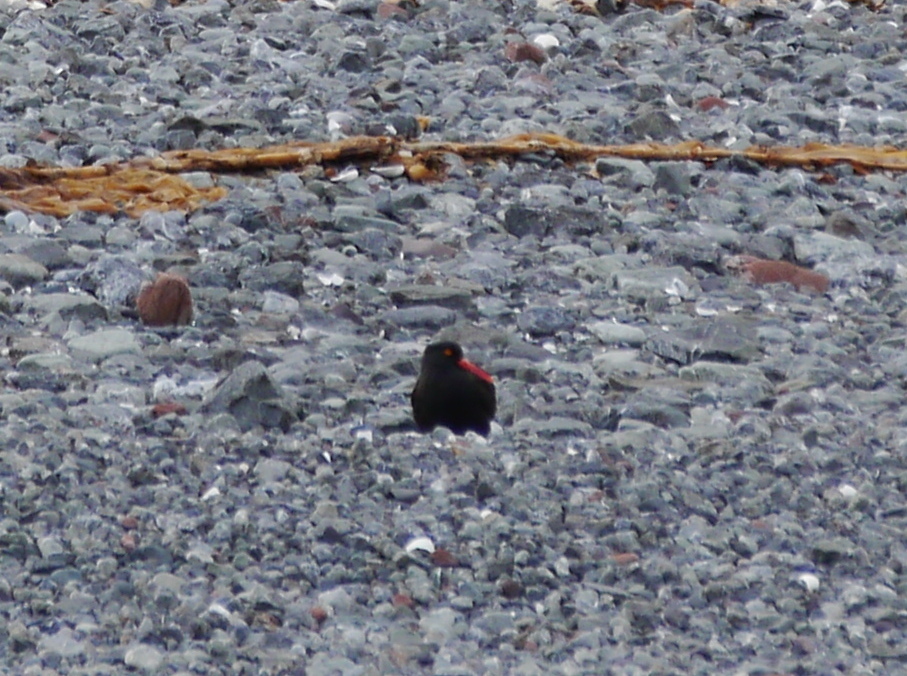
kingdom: Animalia
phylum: Chordata
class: Aves
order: Charadriiformes
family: Haematopodidae
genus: Haematopus
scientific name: Haematopus bachmani
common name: Black oystercatcher
